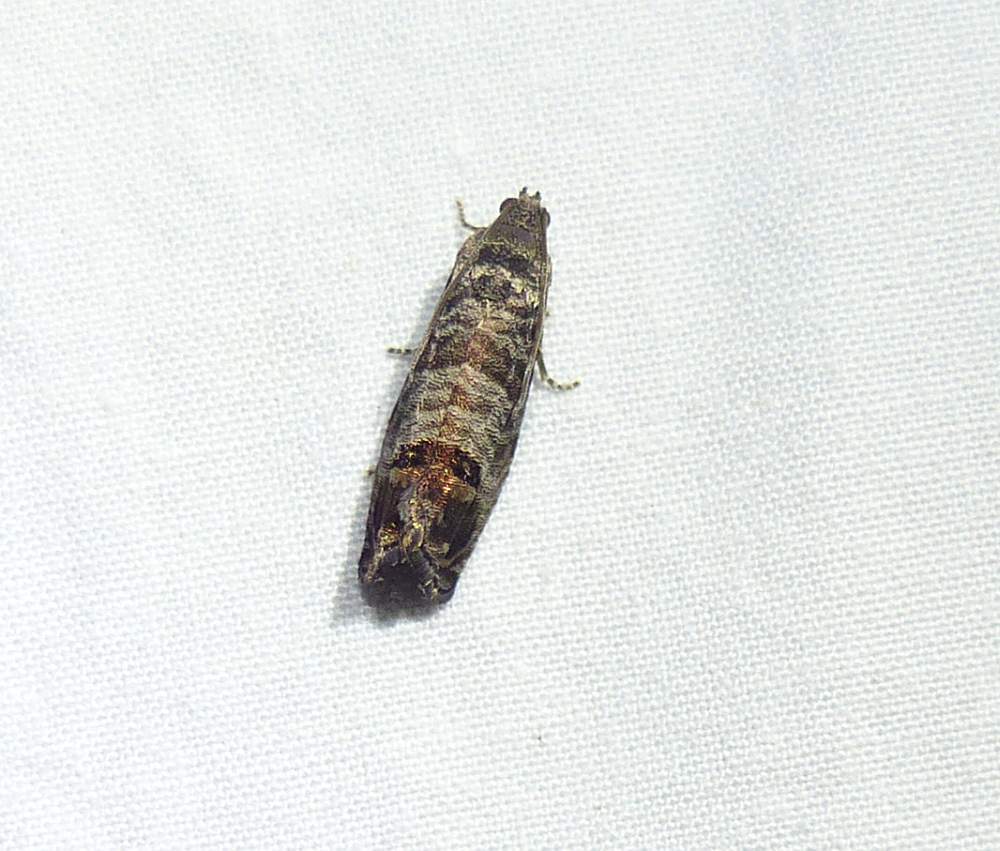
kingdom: Animalia
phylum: Arthropoda
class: Insecta
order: Lepidoptera
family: Tortricidae
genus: Cydia
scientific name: Cydia pomonella
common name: Codling moth
